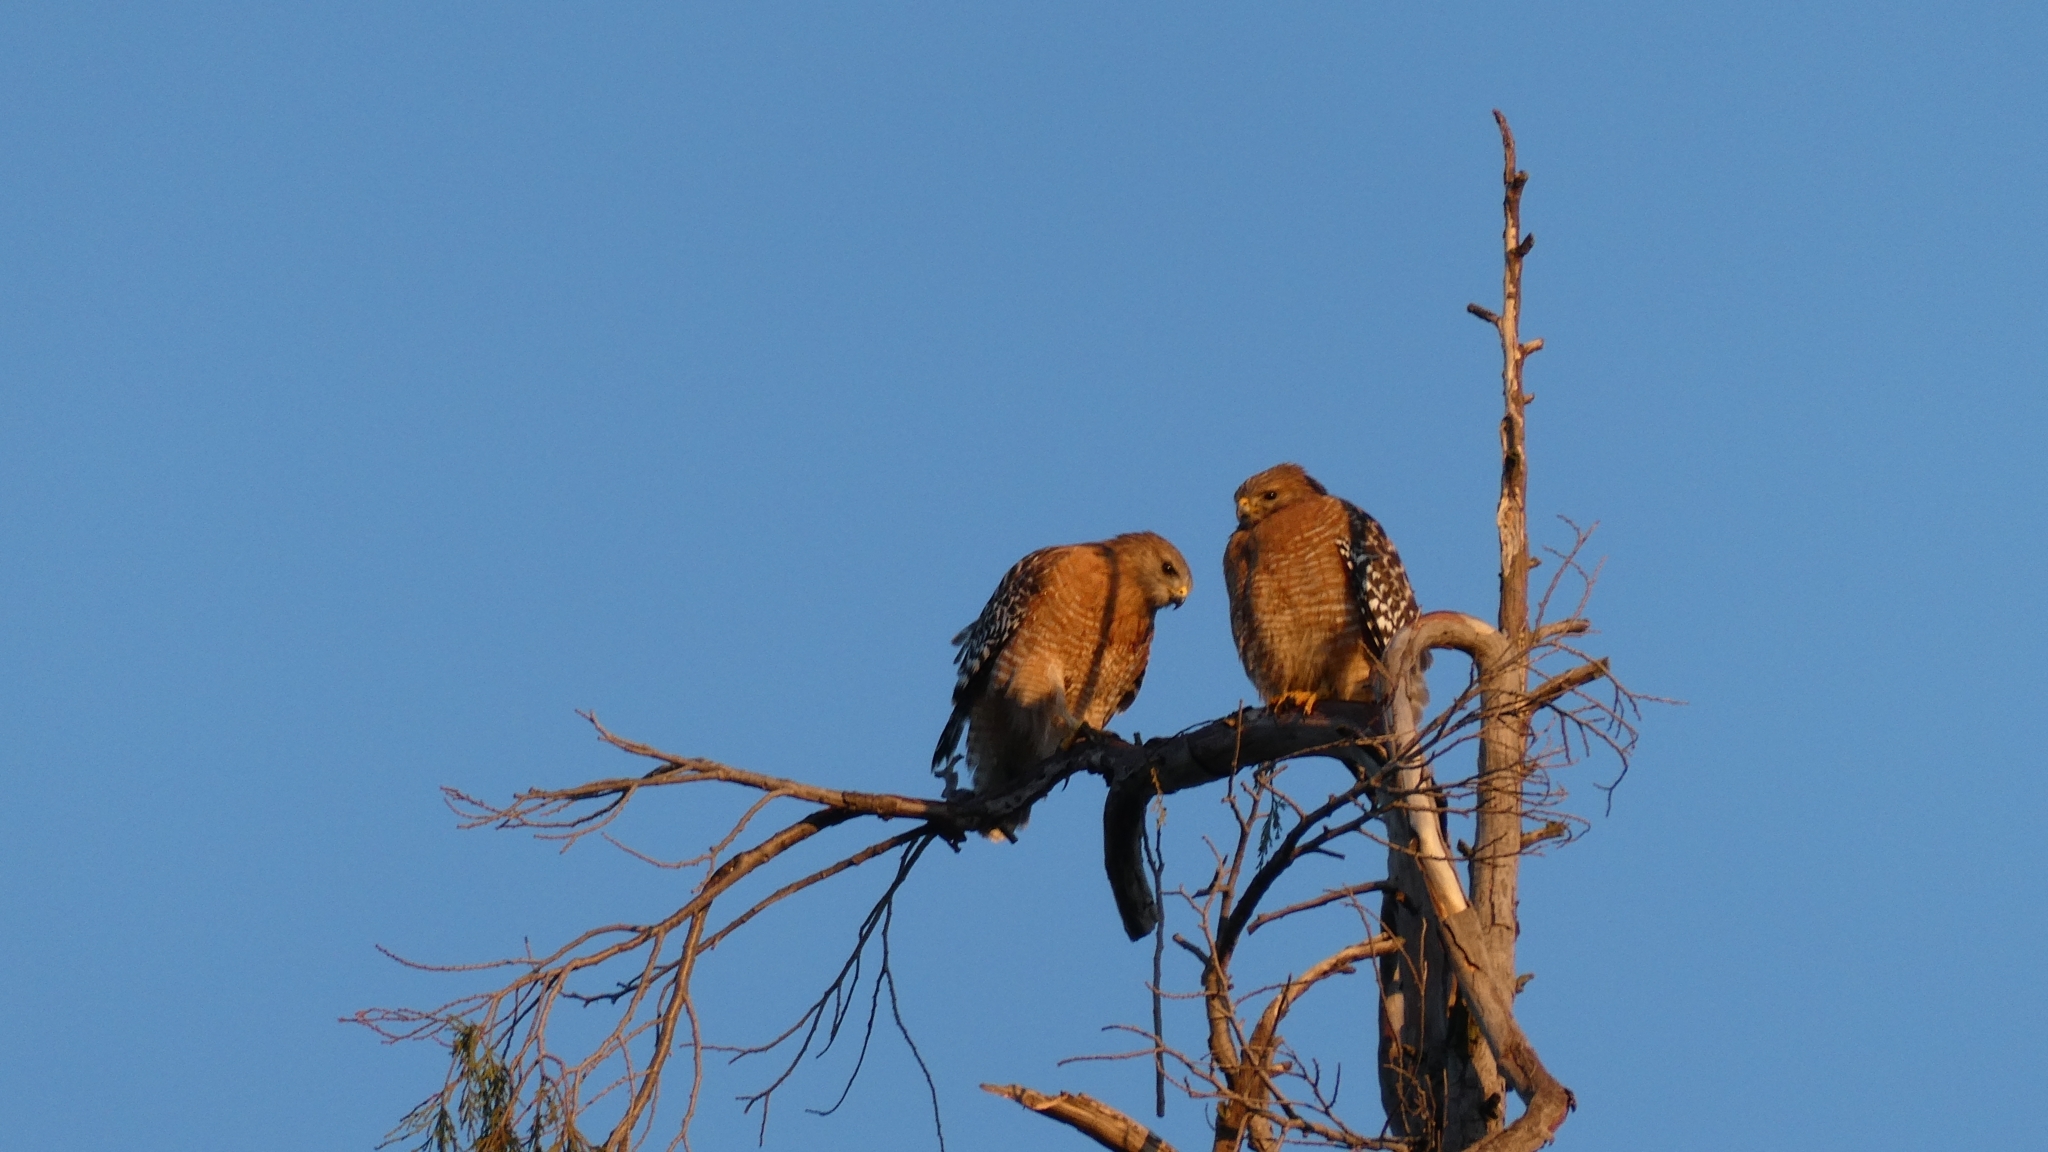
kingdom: Animalia
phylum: Chordata
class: Aves
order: Accipitriformes
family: Accipitridae
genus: Buteo
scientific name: Buteo lineatus
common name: Red-shouldered hawk
